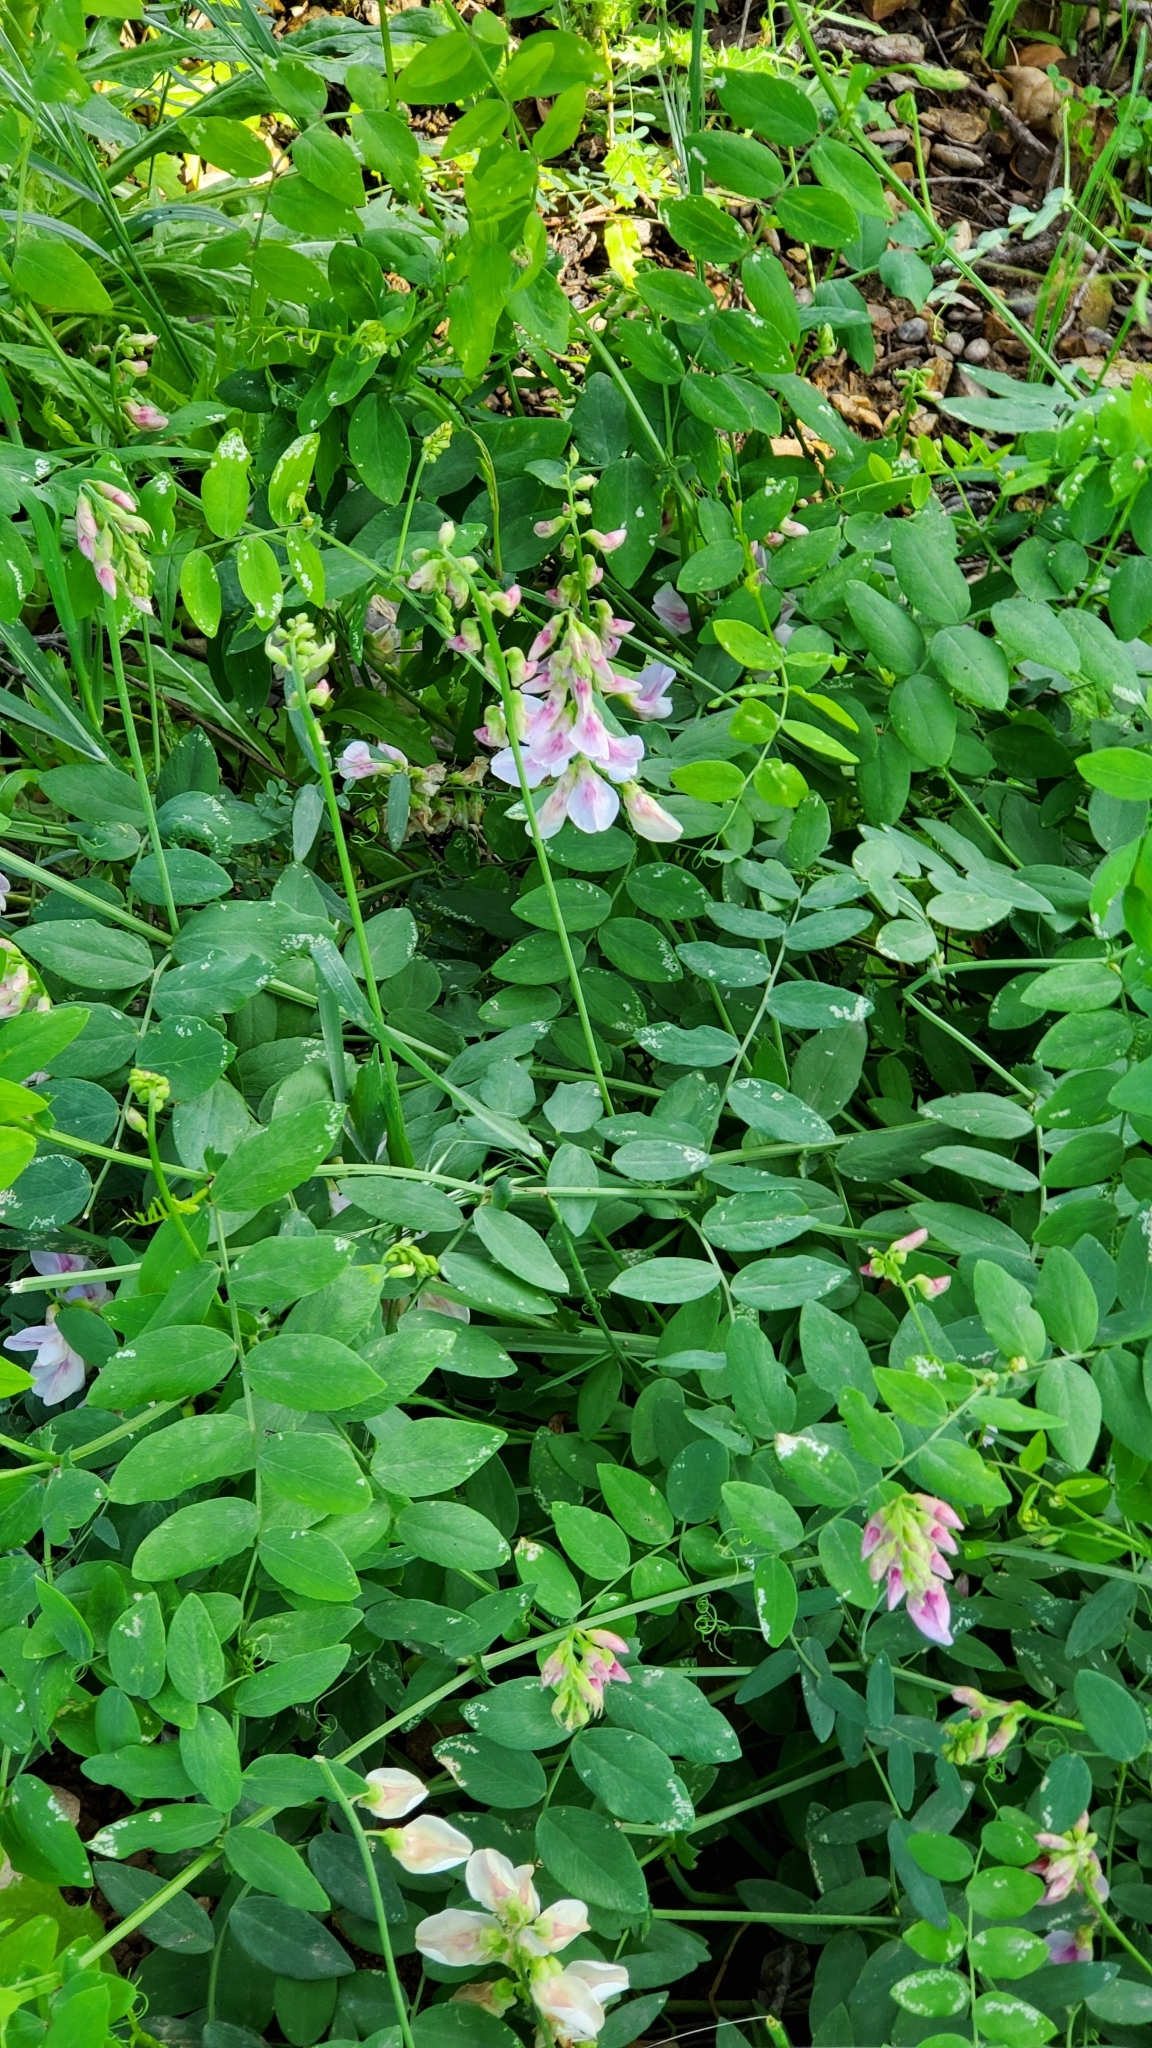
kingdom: Plantae
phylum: Tracheophyta
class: Magnoliopsida
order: Fabales
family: Fabaceae
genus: Lathyrus
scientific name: Lathyrus vestitus
